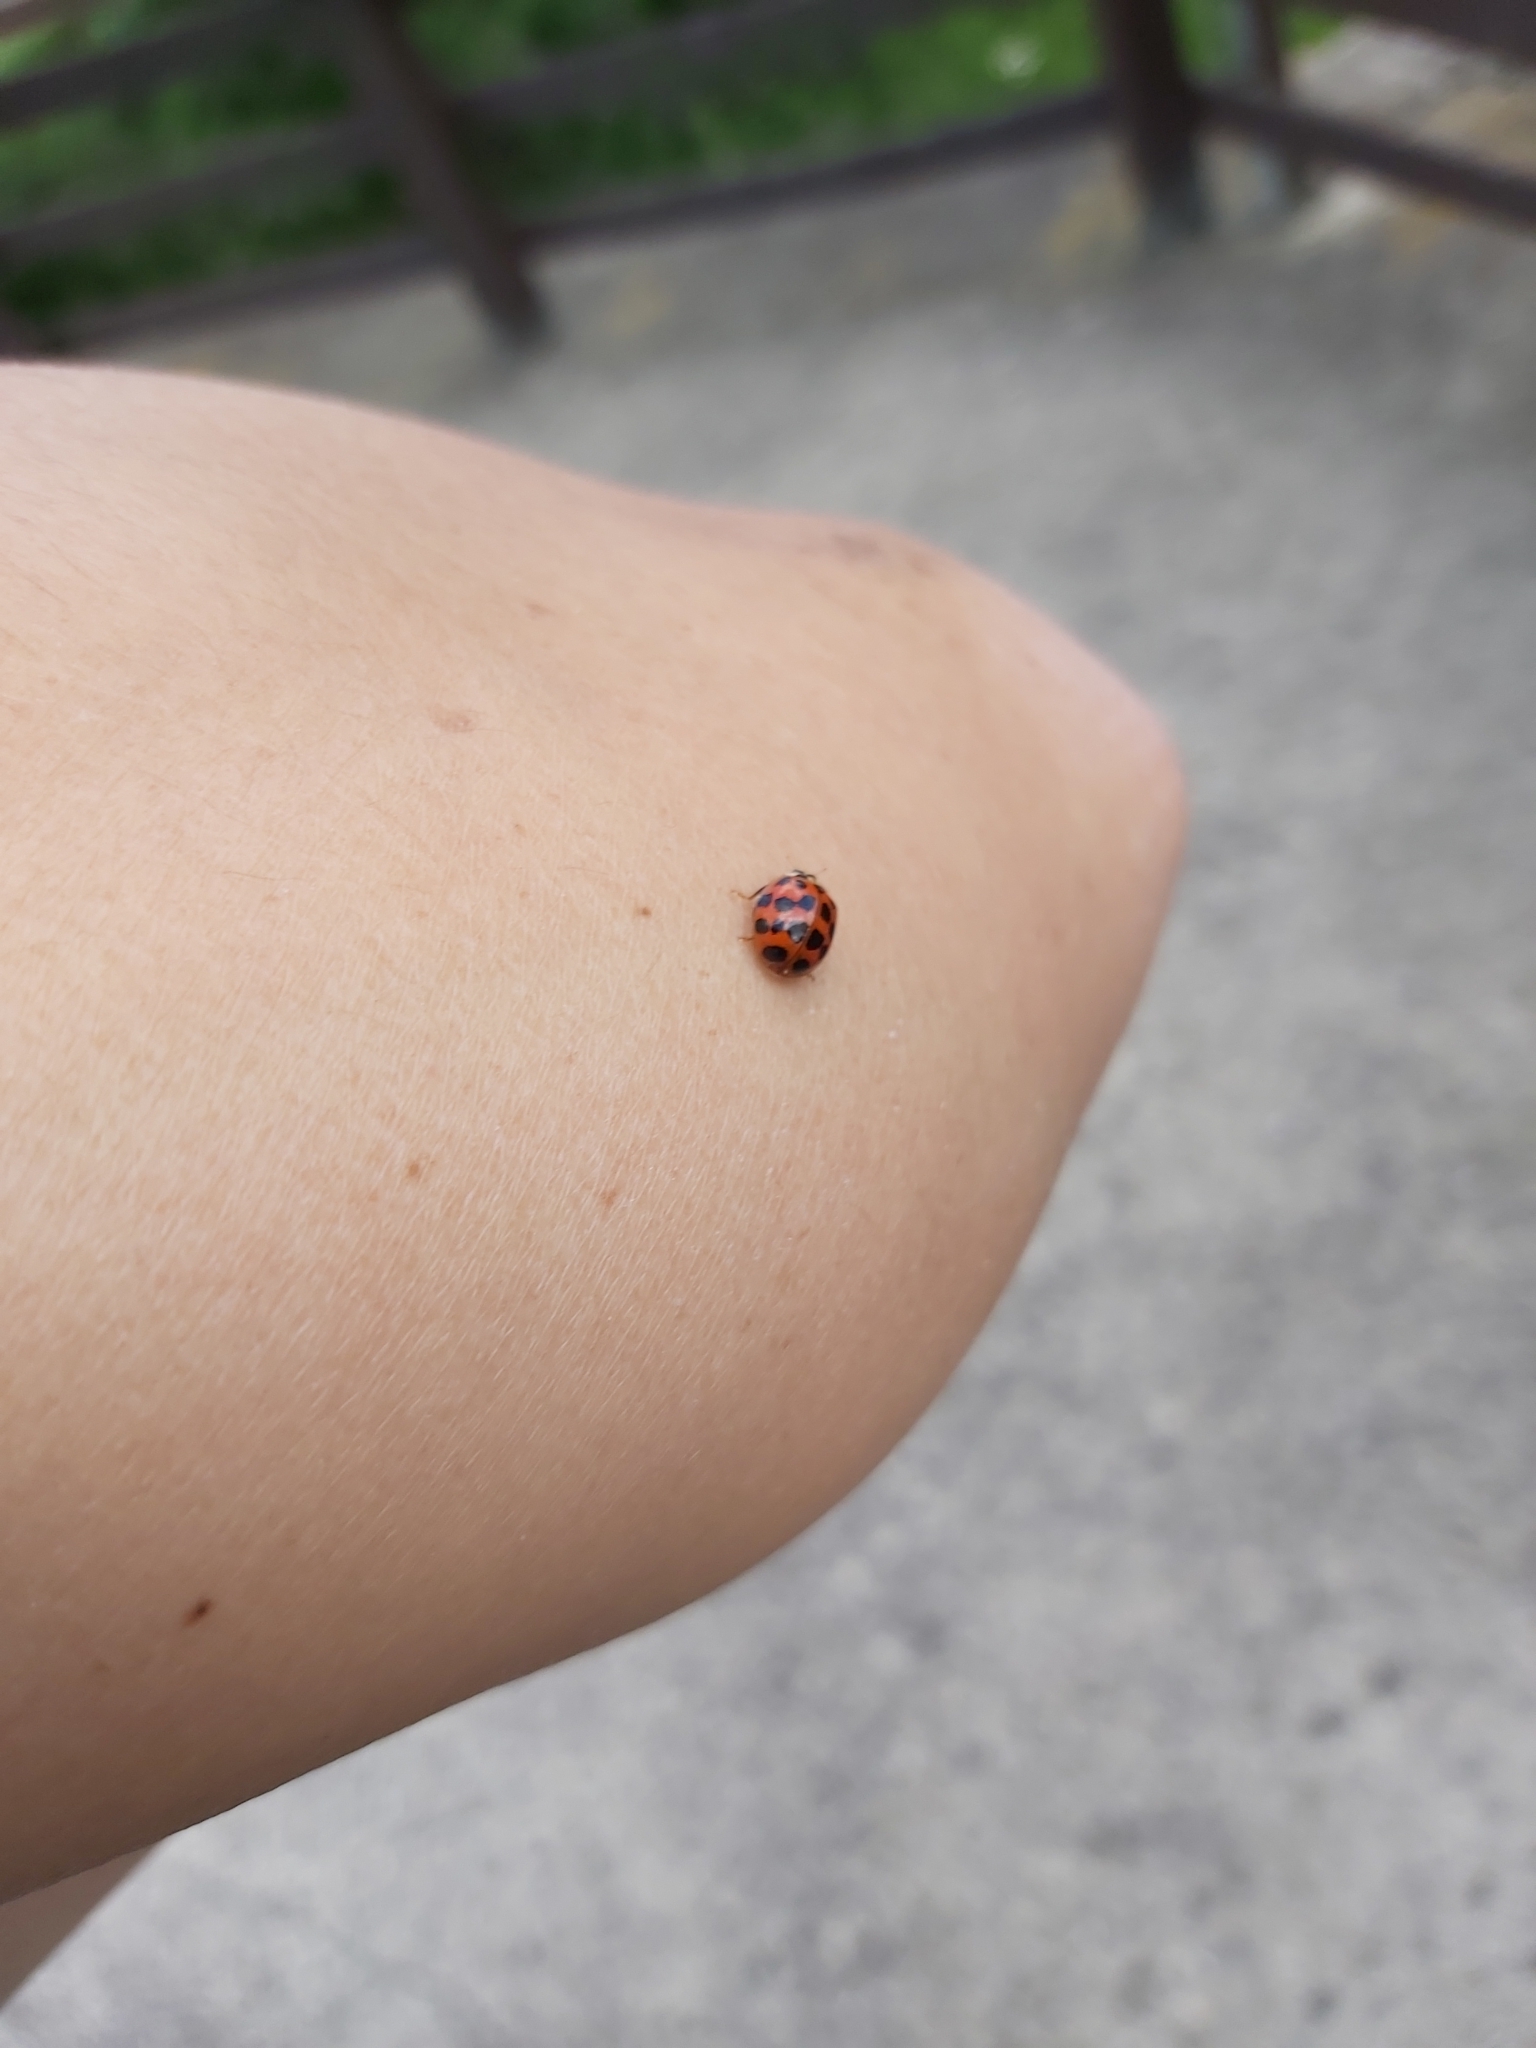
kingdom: Animalia
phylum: Arthropoda
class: Insecta
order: Coleoptera
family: Coccinellidae
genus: Harmonia
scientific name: Harmonia axyridis
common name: Harlequin ladybird
